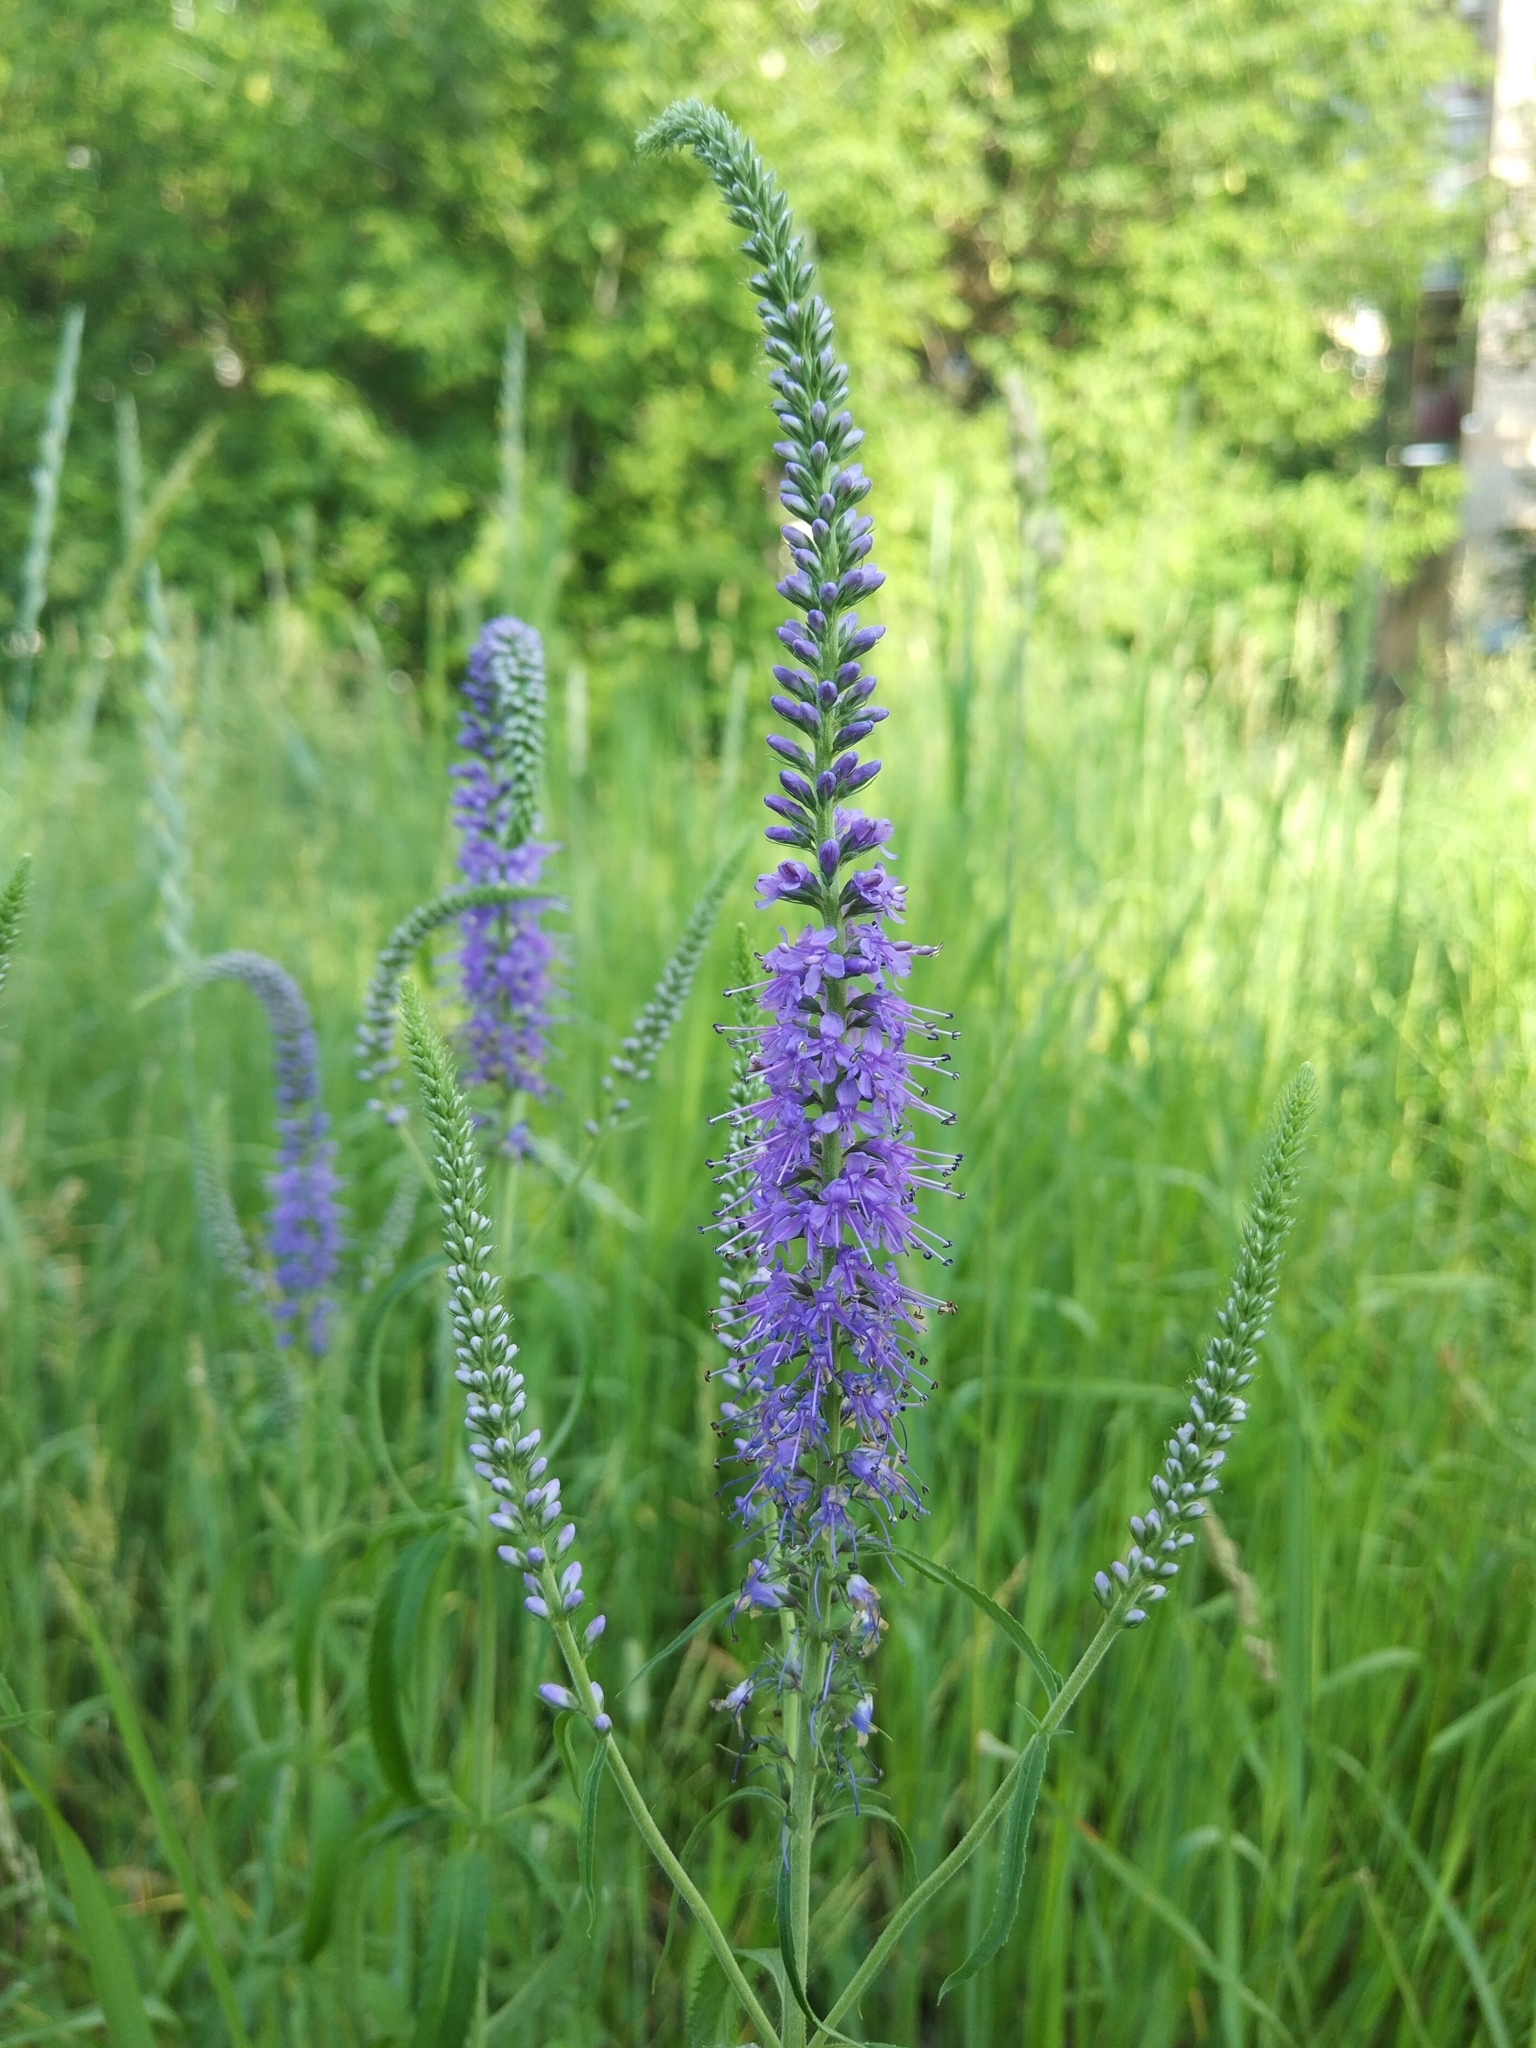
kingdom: Plantae
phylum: Tracheophyta
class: Magnoliopsida
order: Lamiales
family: Plantaginaceae
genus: Veronica
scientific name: Veronica longifolia
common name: Garden speedwell
